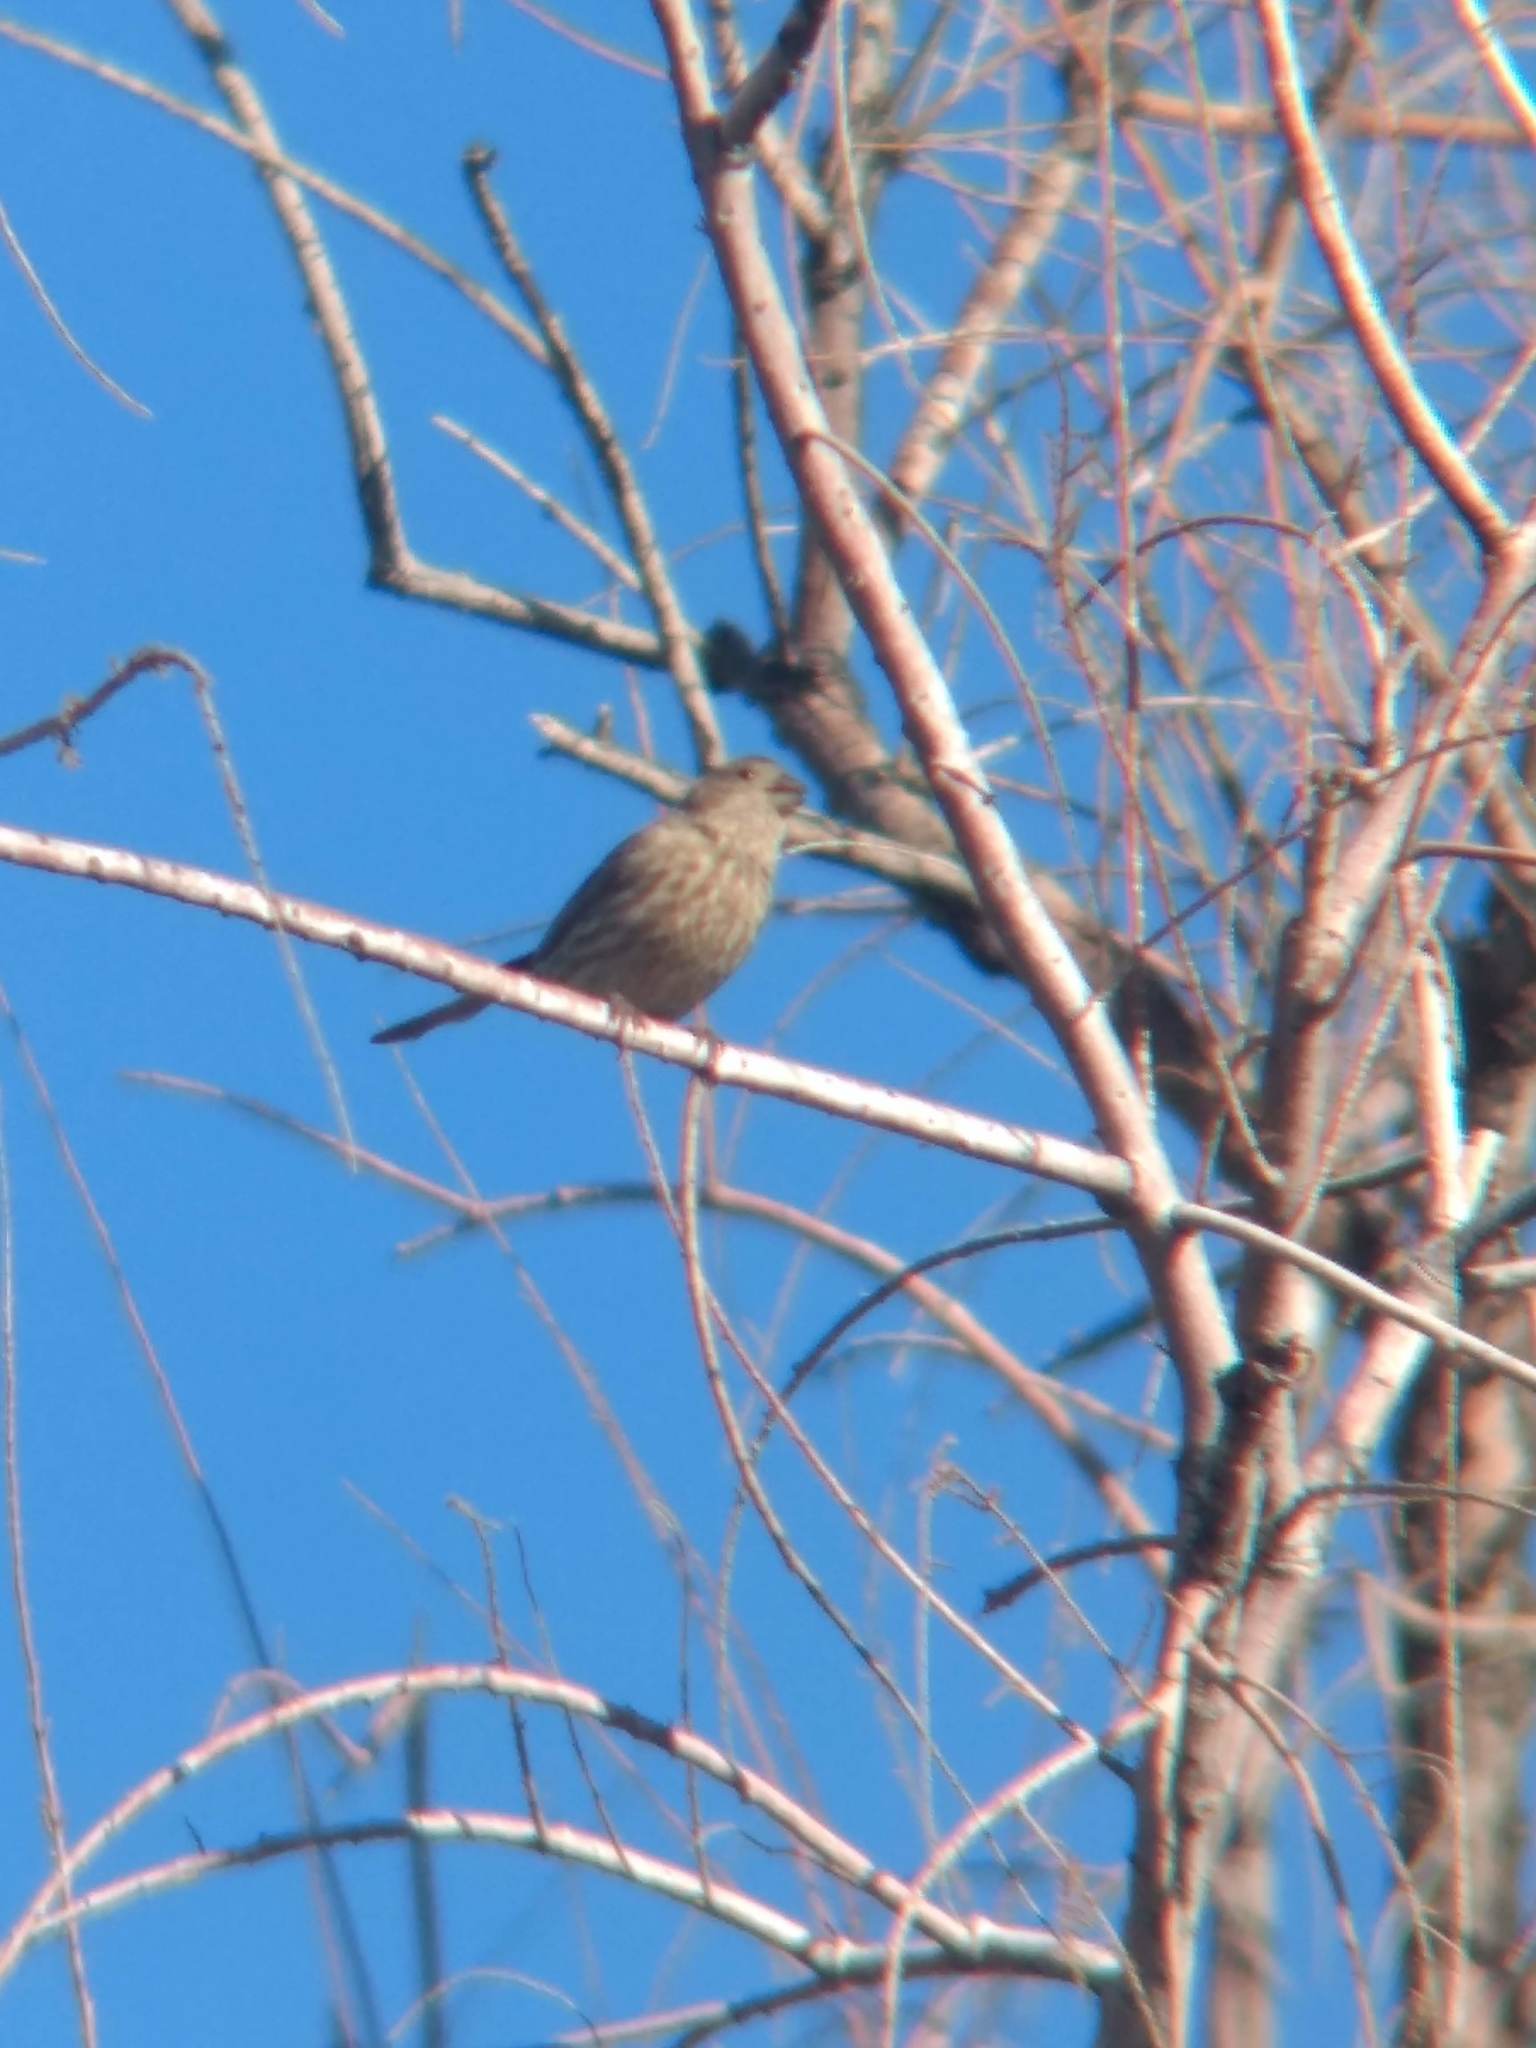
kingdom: Animalia
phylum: Chordata
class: Aves
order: Passeriformes
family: Fringillidae
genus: Haemorhous
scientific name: Haemorhous mexicanus
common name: House finch
